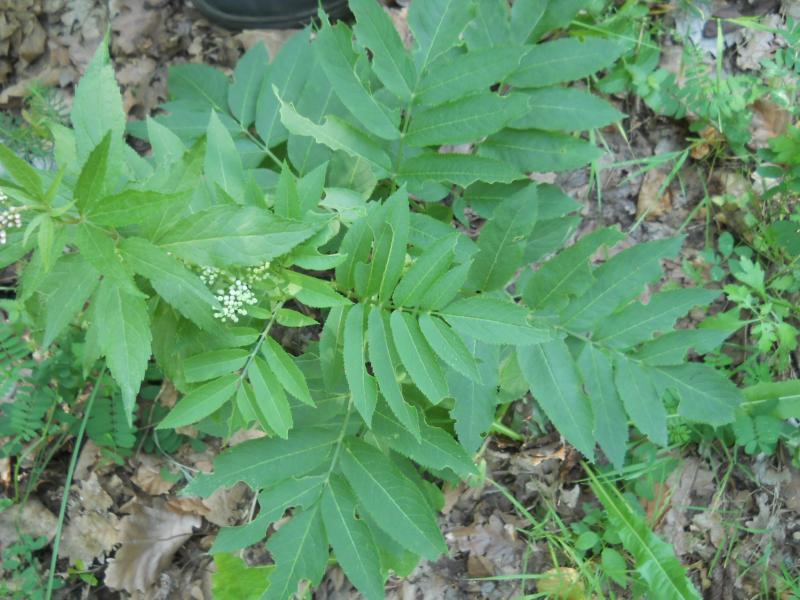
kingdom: Plantae
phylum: Tracheophyta
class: Magnoliopsida
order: Dipsacales
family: Viburnaceae
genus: Sambucus
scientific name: Sambucus ebulus
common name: Dwarf elder
